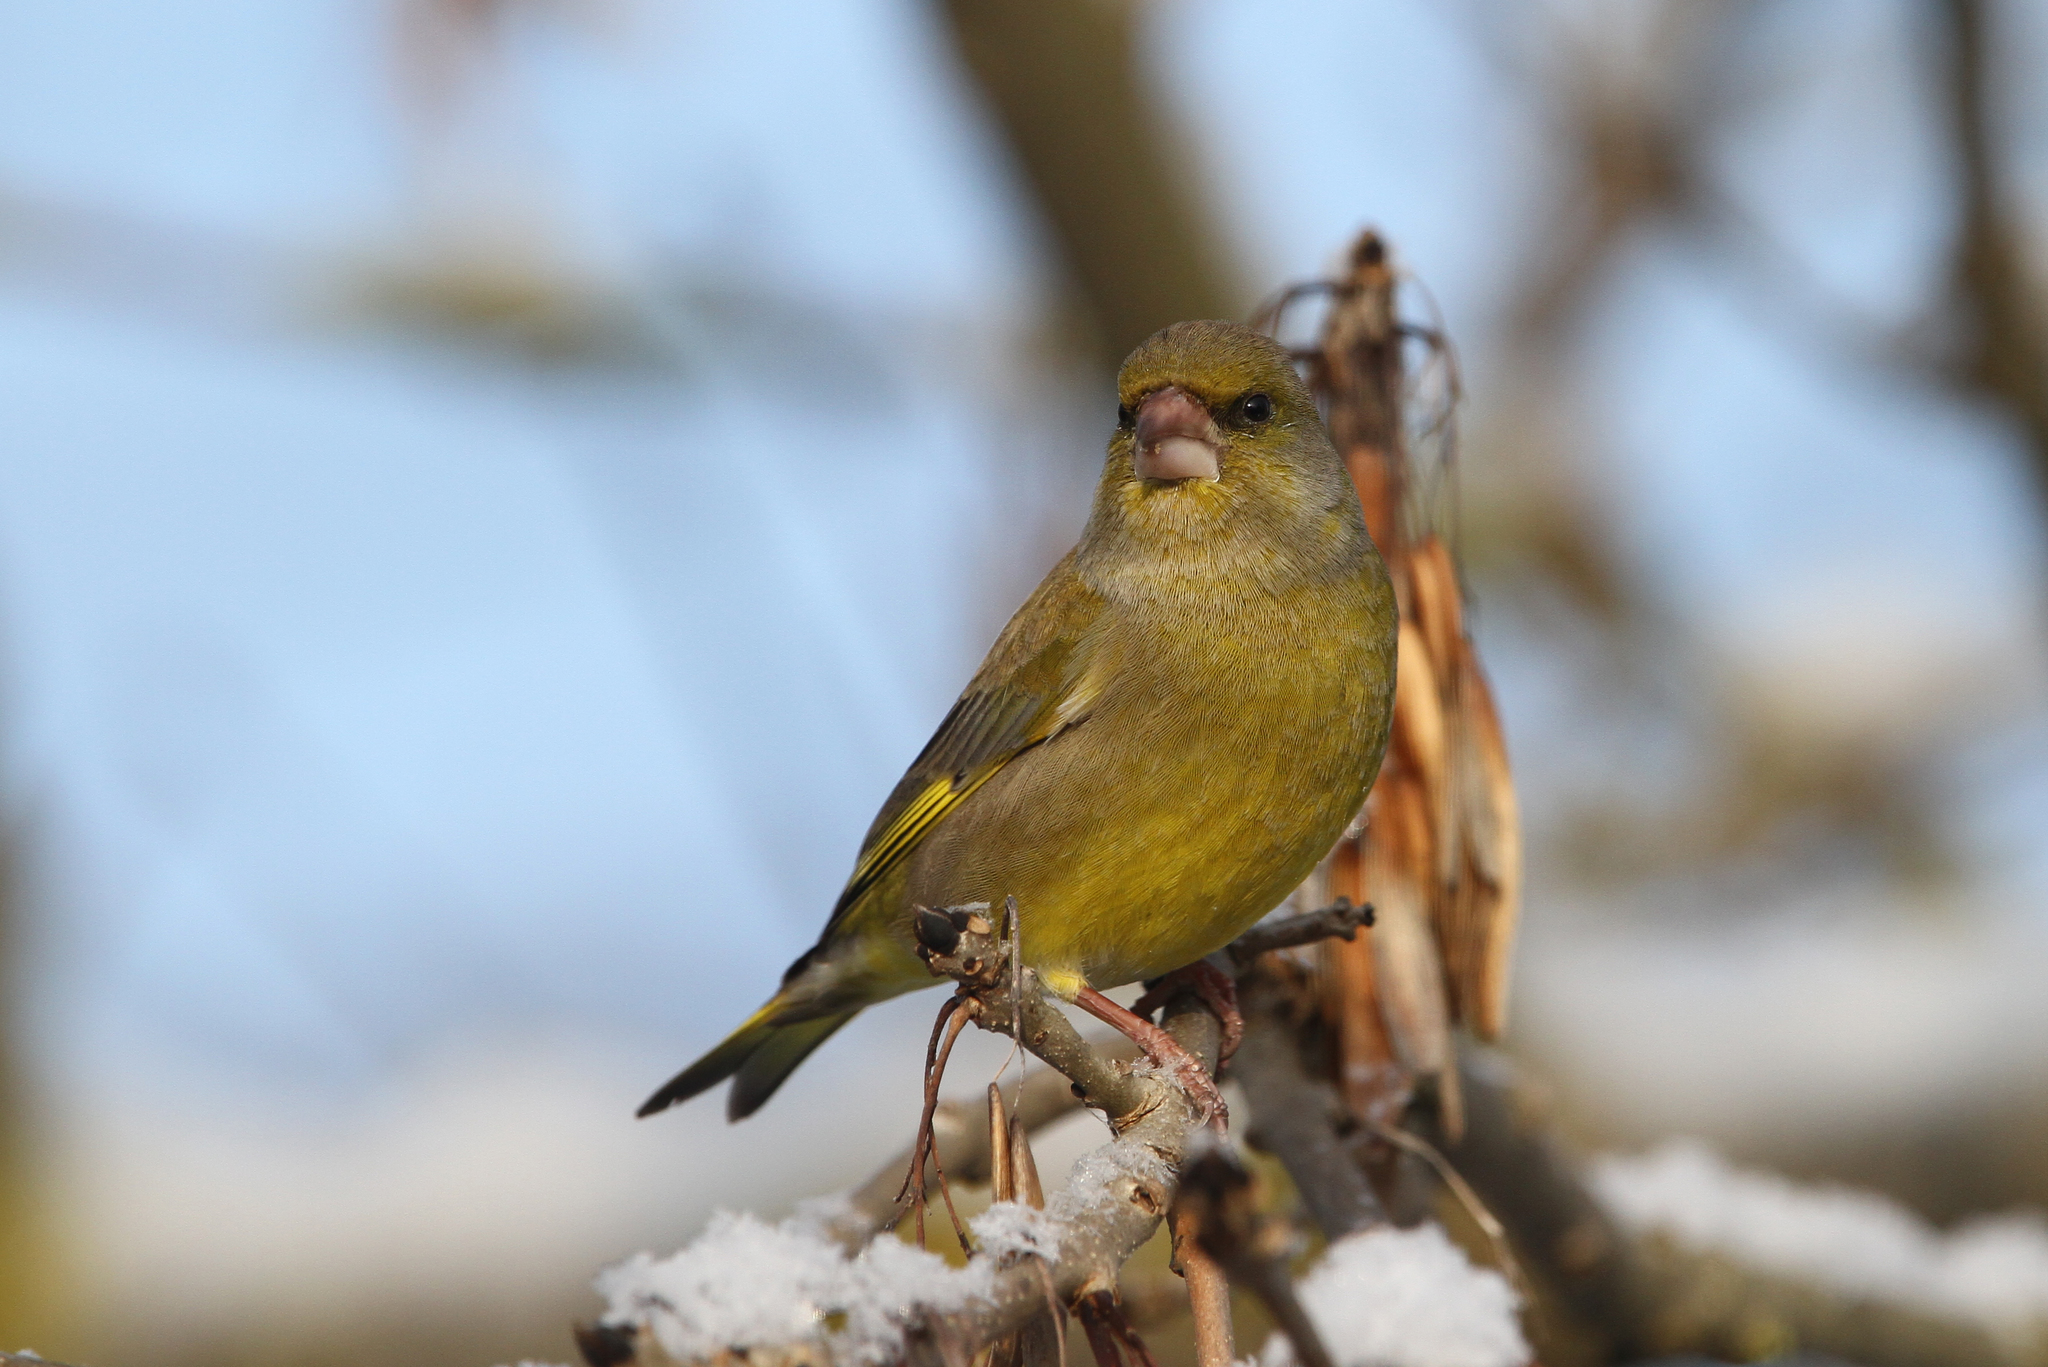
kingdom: Plantae
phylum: Tracheophyta
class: Liliopsida
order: Poales
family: Poaceae
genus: Chloris
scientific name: Chloris chloris
